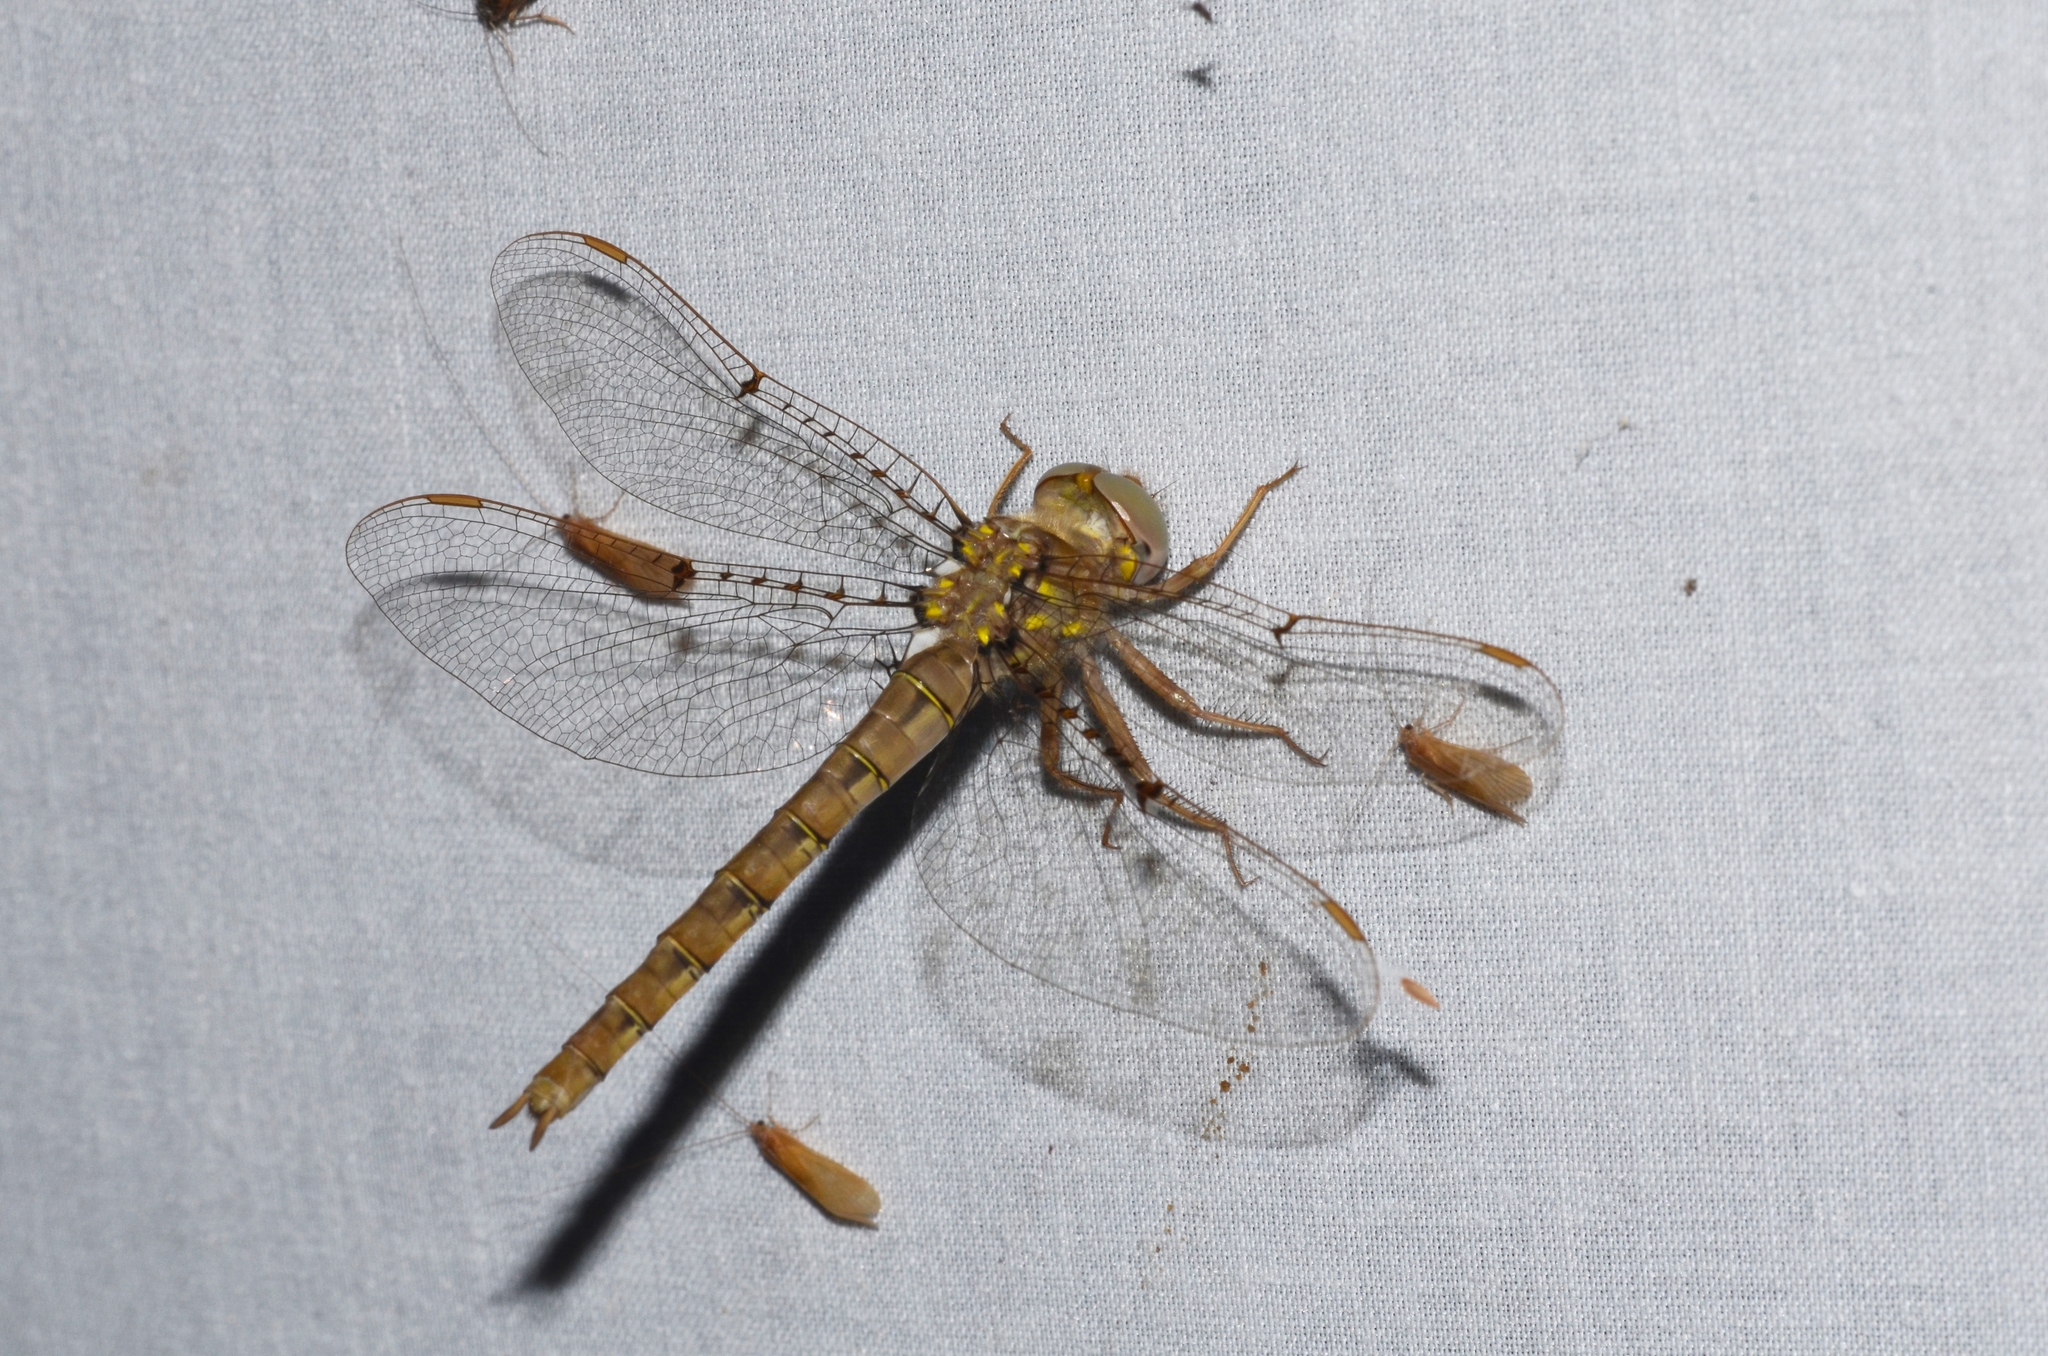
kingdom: Animalia
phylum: Arthropoda
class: Insecta
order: Odonata
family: Corduliidae
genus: Neurocordulia
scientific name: Neurocordulia molesta
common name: Smoky shadowdragon
